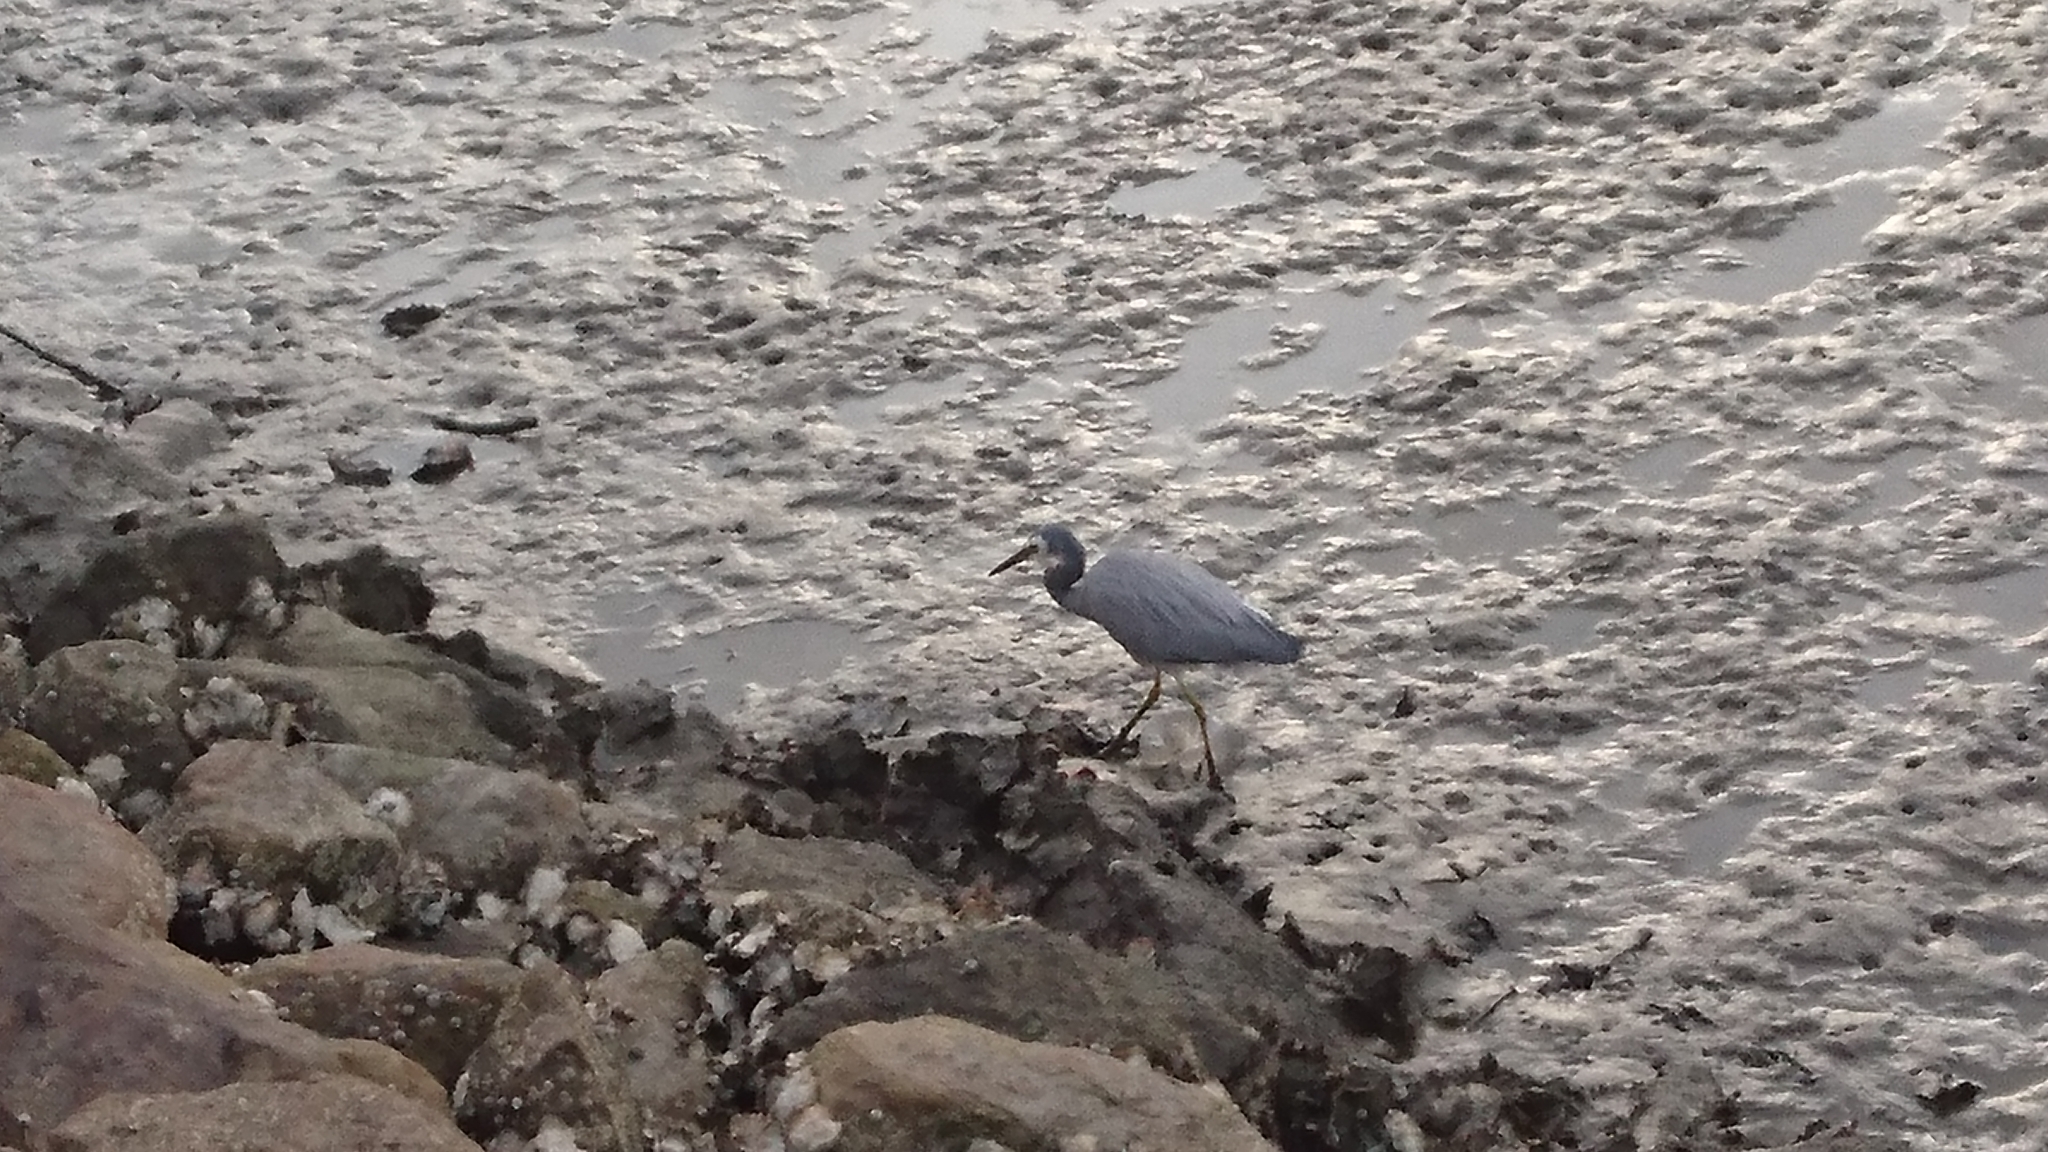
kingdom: Animalia
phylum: Chordata
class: Aves
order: Pelecaniformes
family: Ardeidae
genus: Egretta
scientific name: Egretta novaehollandiae
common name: White-faced heron
